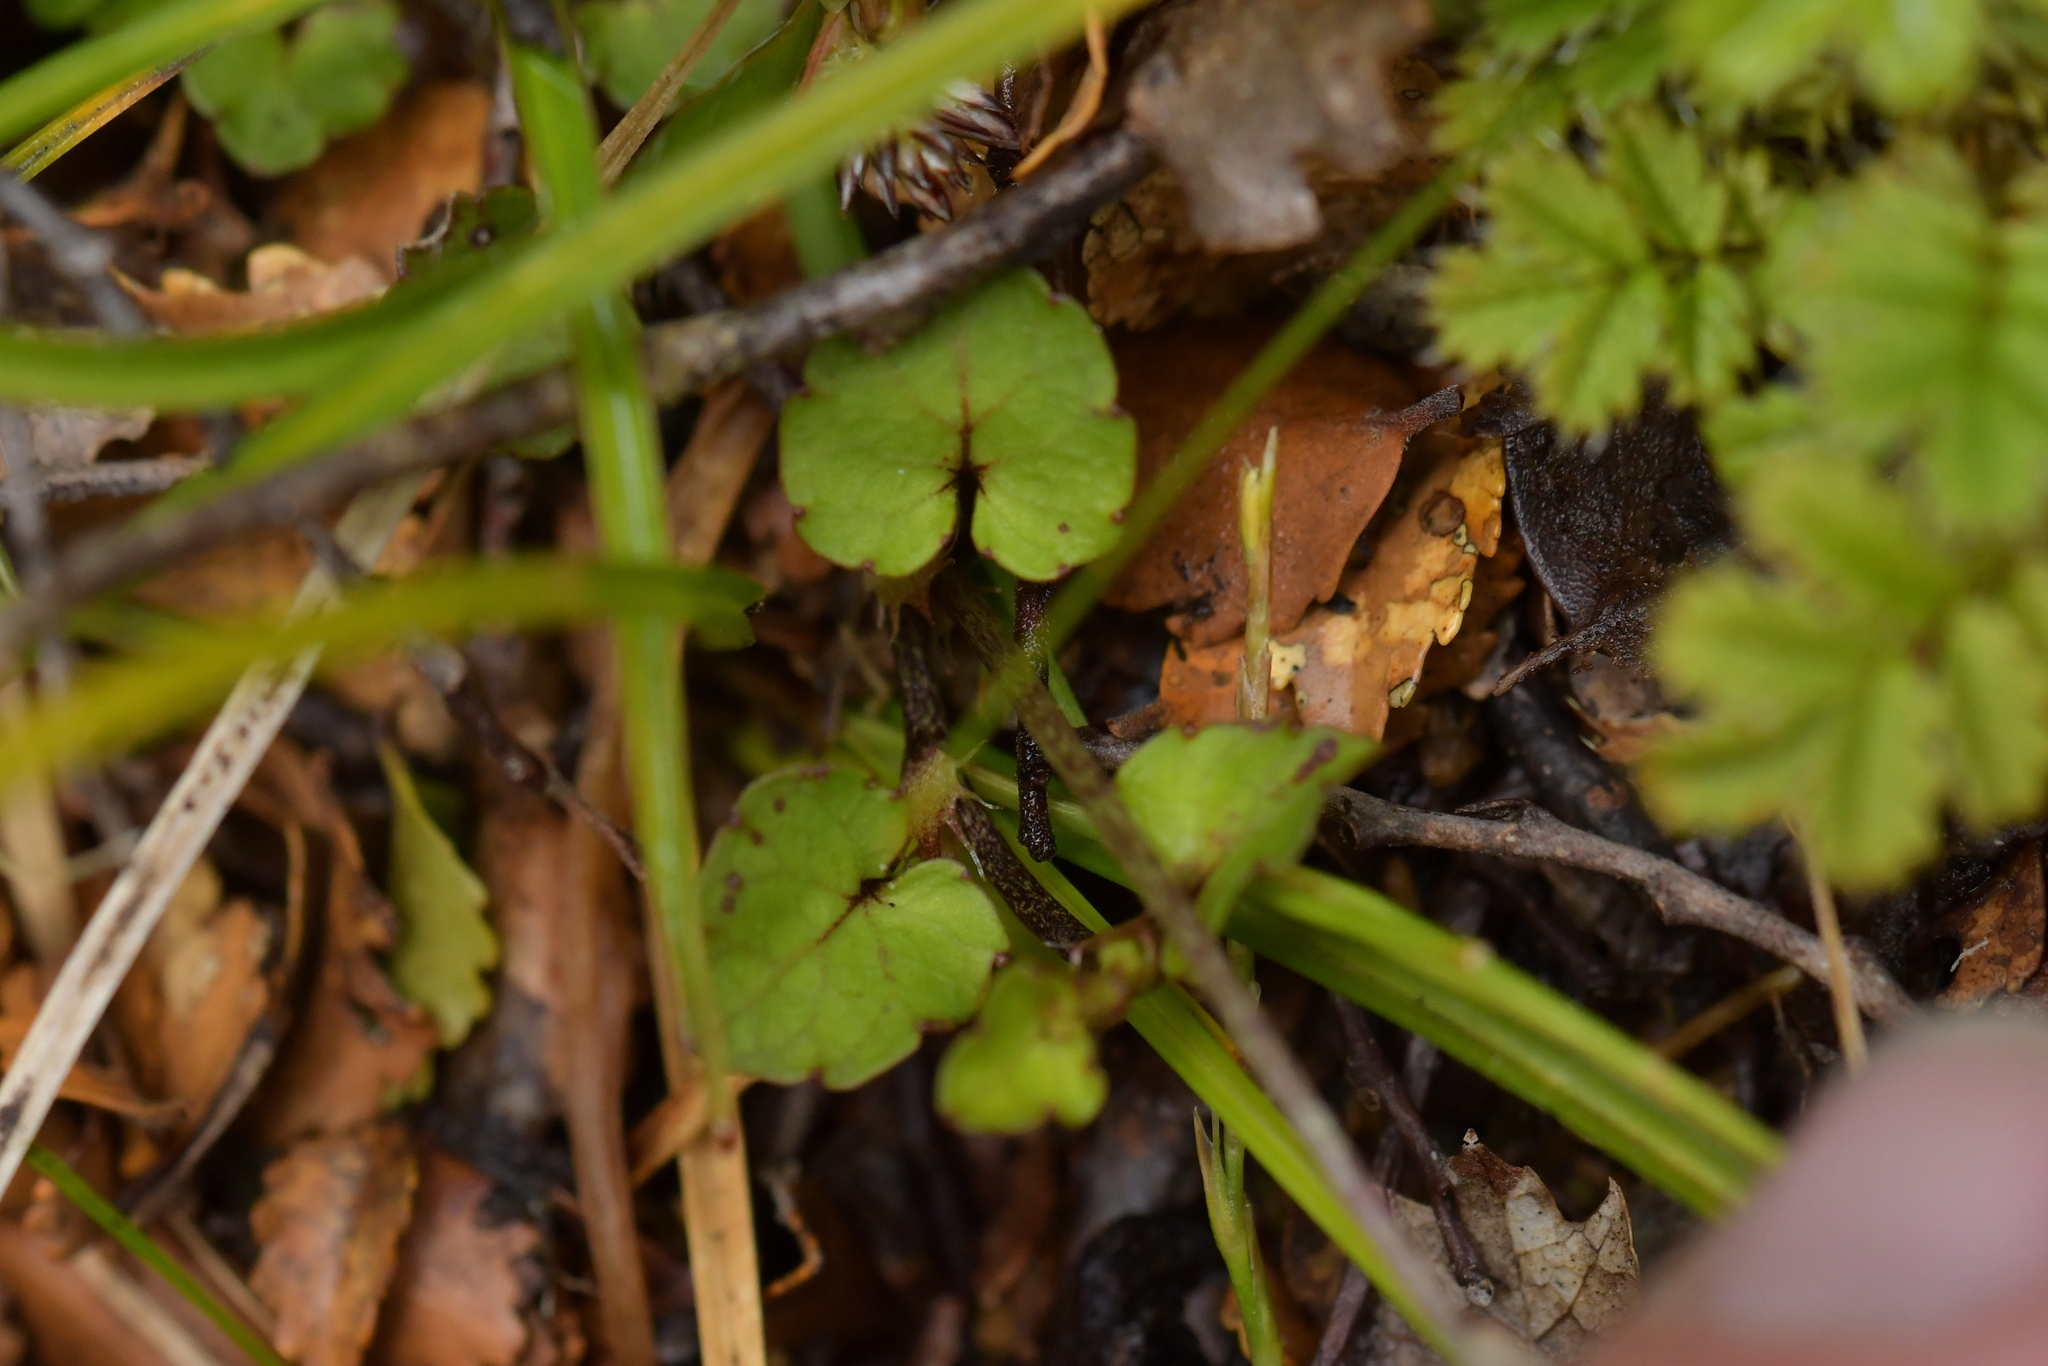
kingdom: Plantae
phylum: Tracheophyta
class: Magnoliopsida
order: Malpighiales
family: Violaceae
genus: Viola
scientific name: Viola filicaulis
